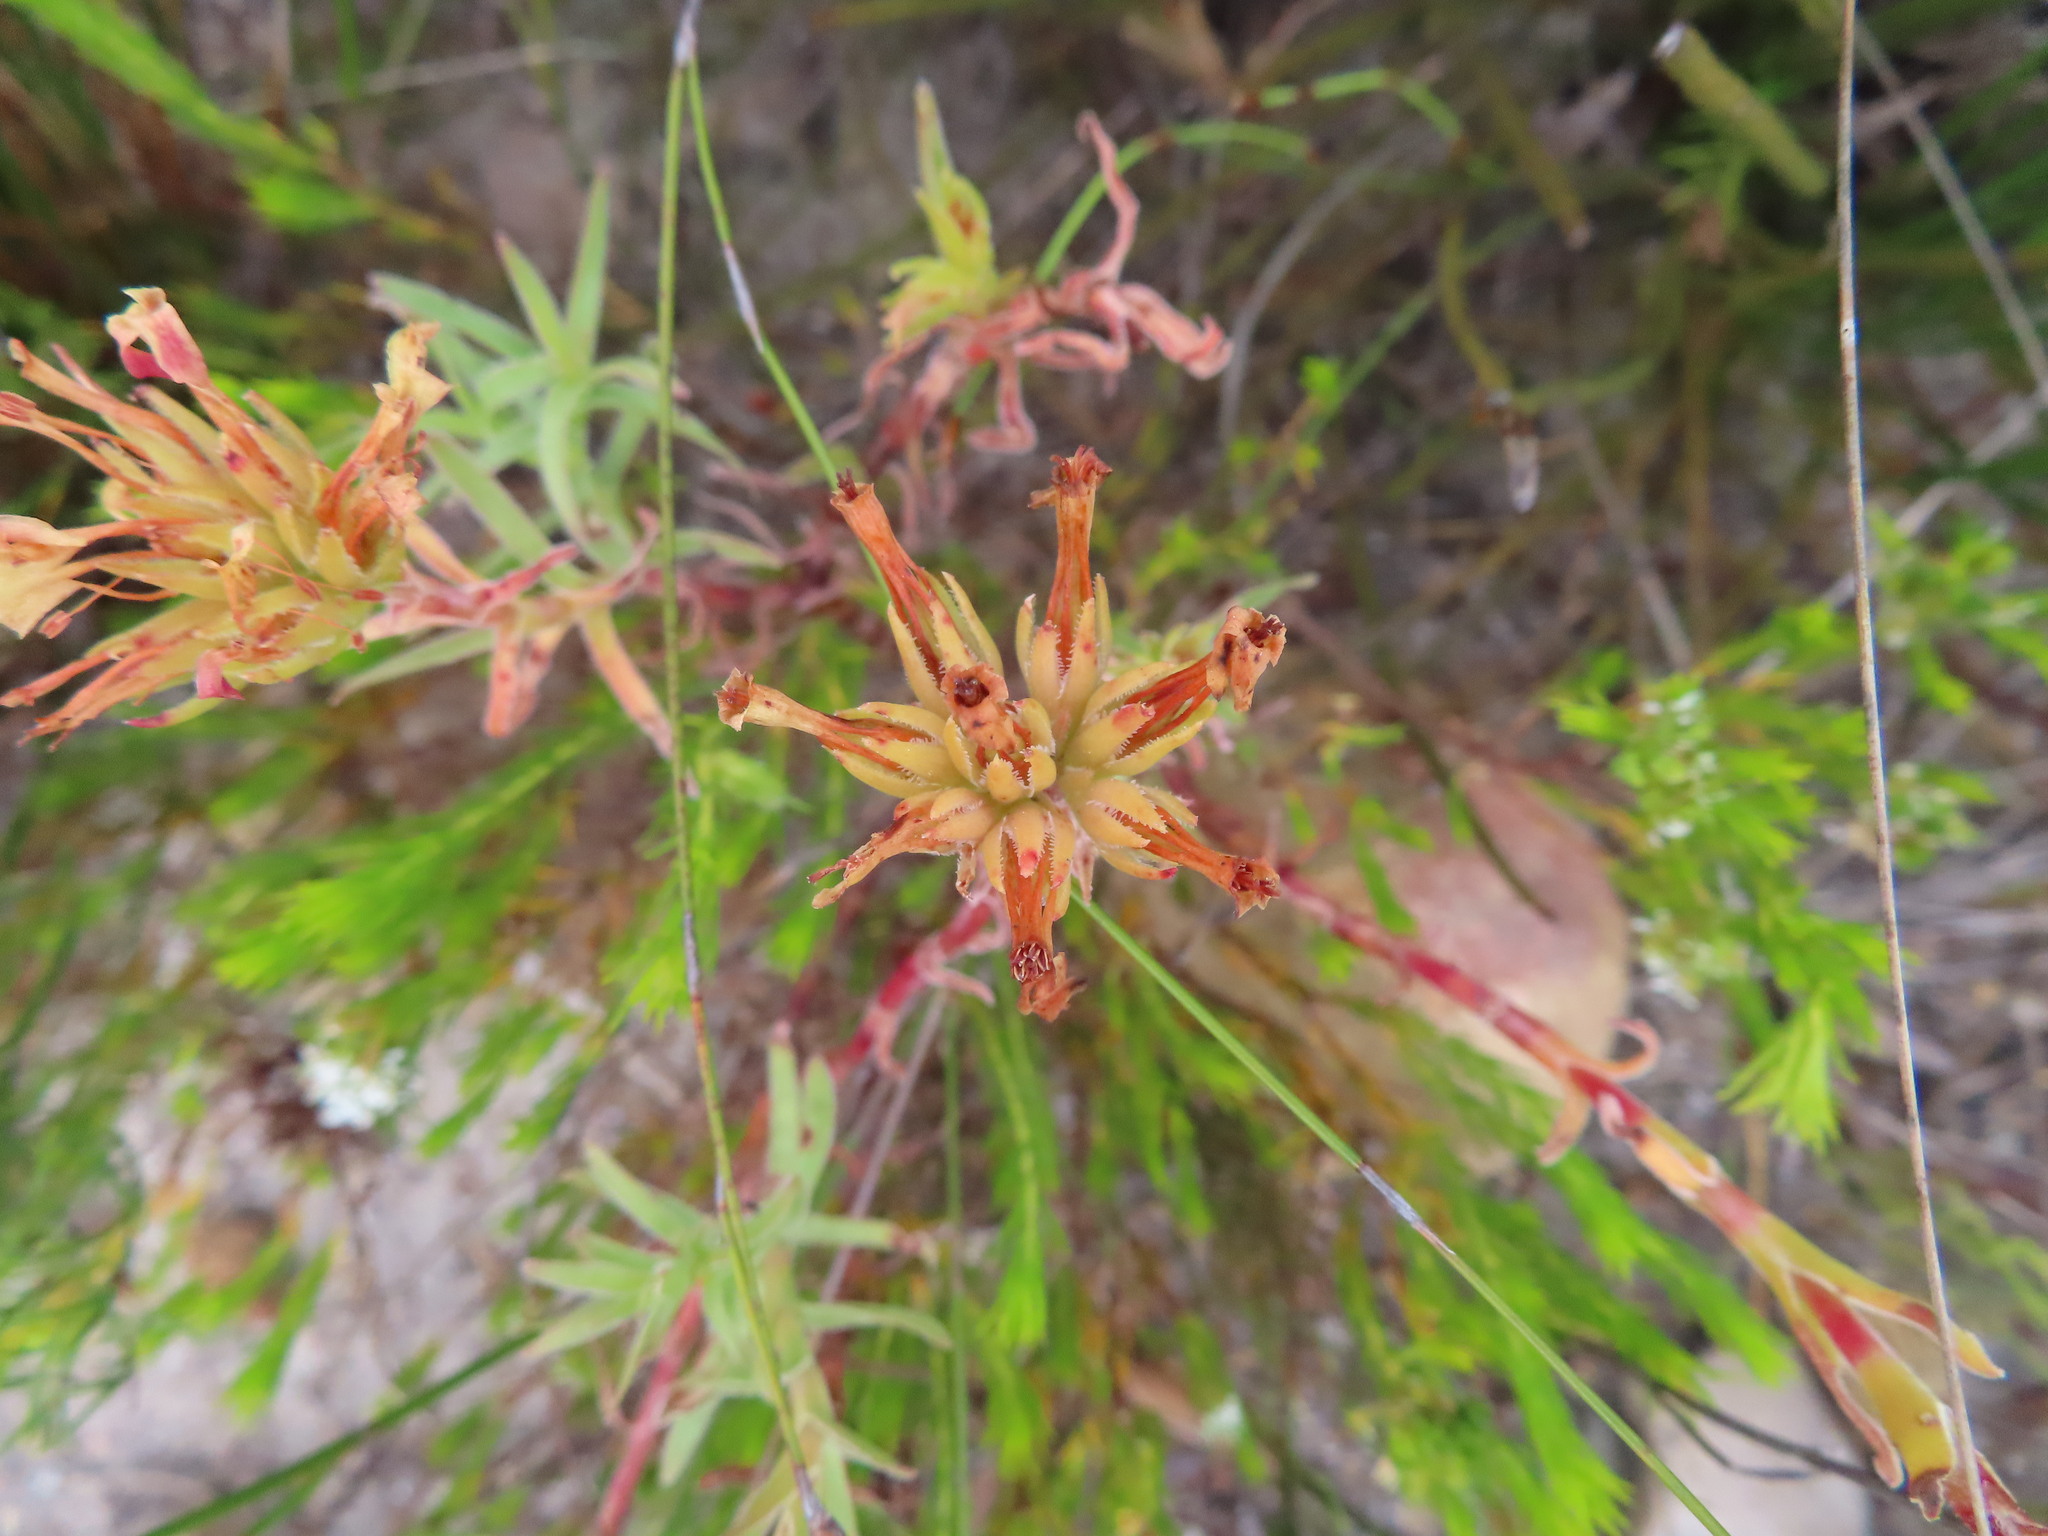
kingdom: Plantae
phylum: Tracheophyta
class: Magnoliopsida
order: Saxifragales
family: Crassulaceae
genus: Crassula
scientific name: Crassula fascicularis
